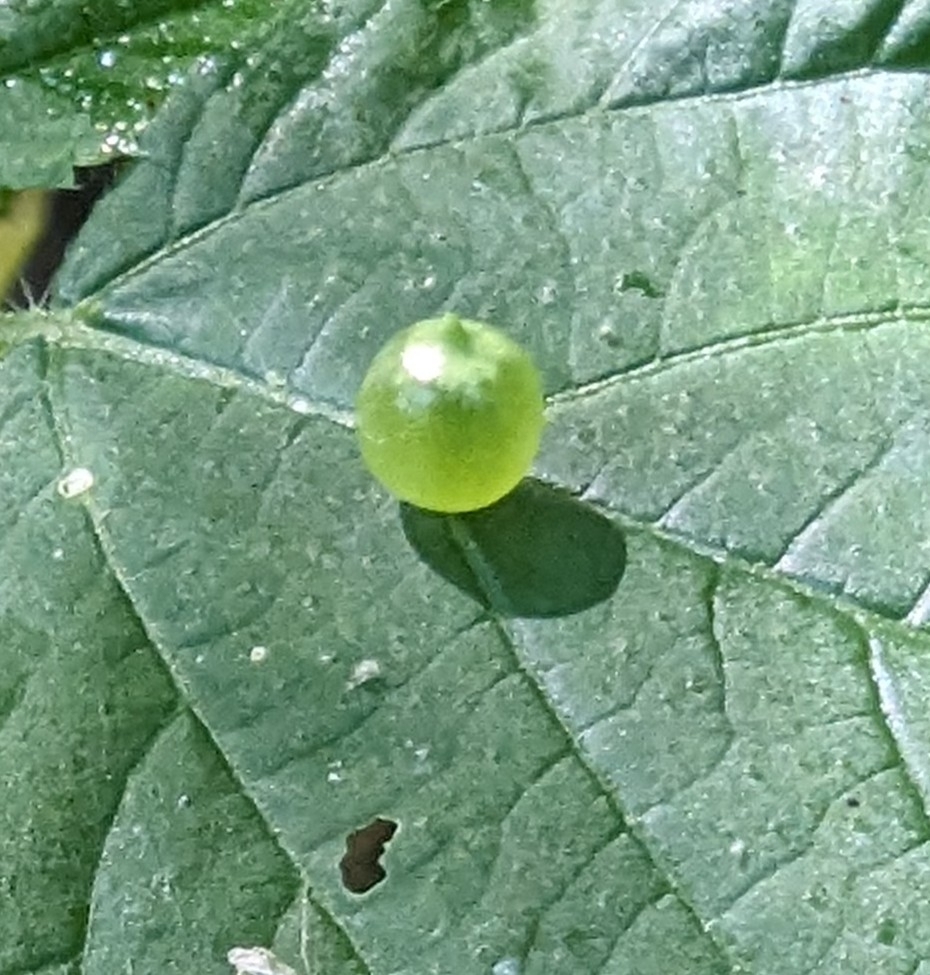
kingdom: Animalia
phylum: Arthropoda
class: Insecta
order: Diptera
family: Cecidomyiidae
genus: Dasineura
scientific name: Dasineura investita
